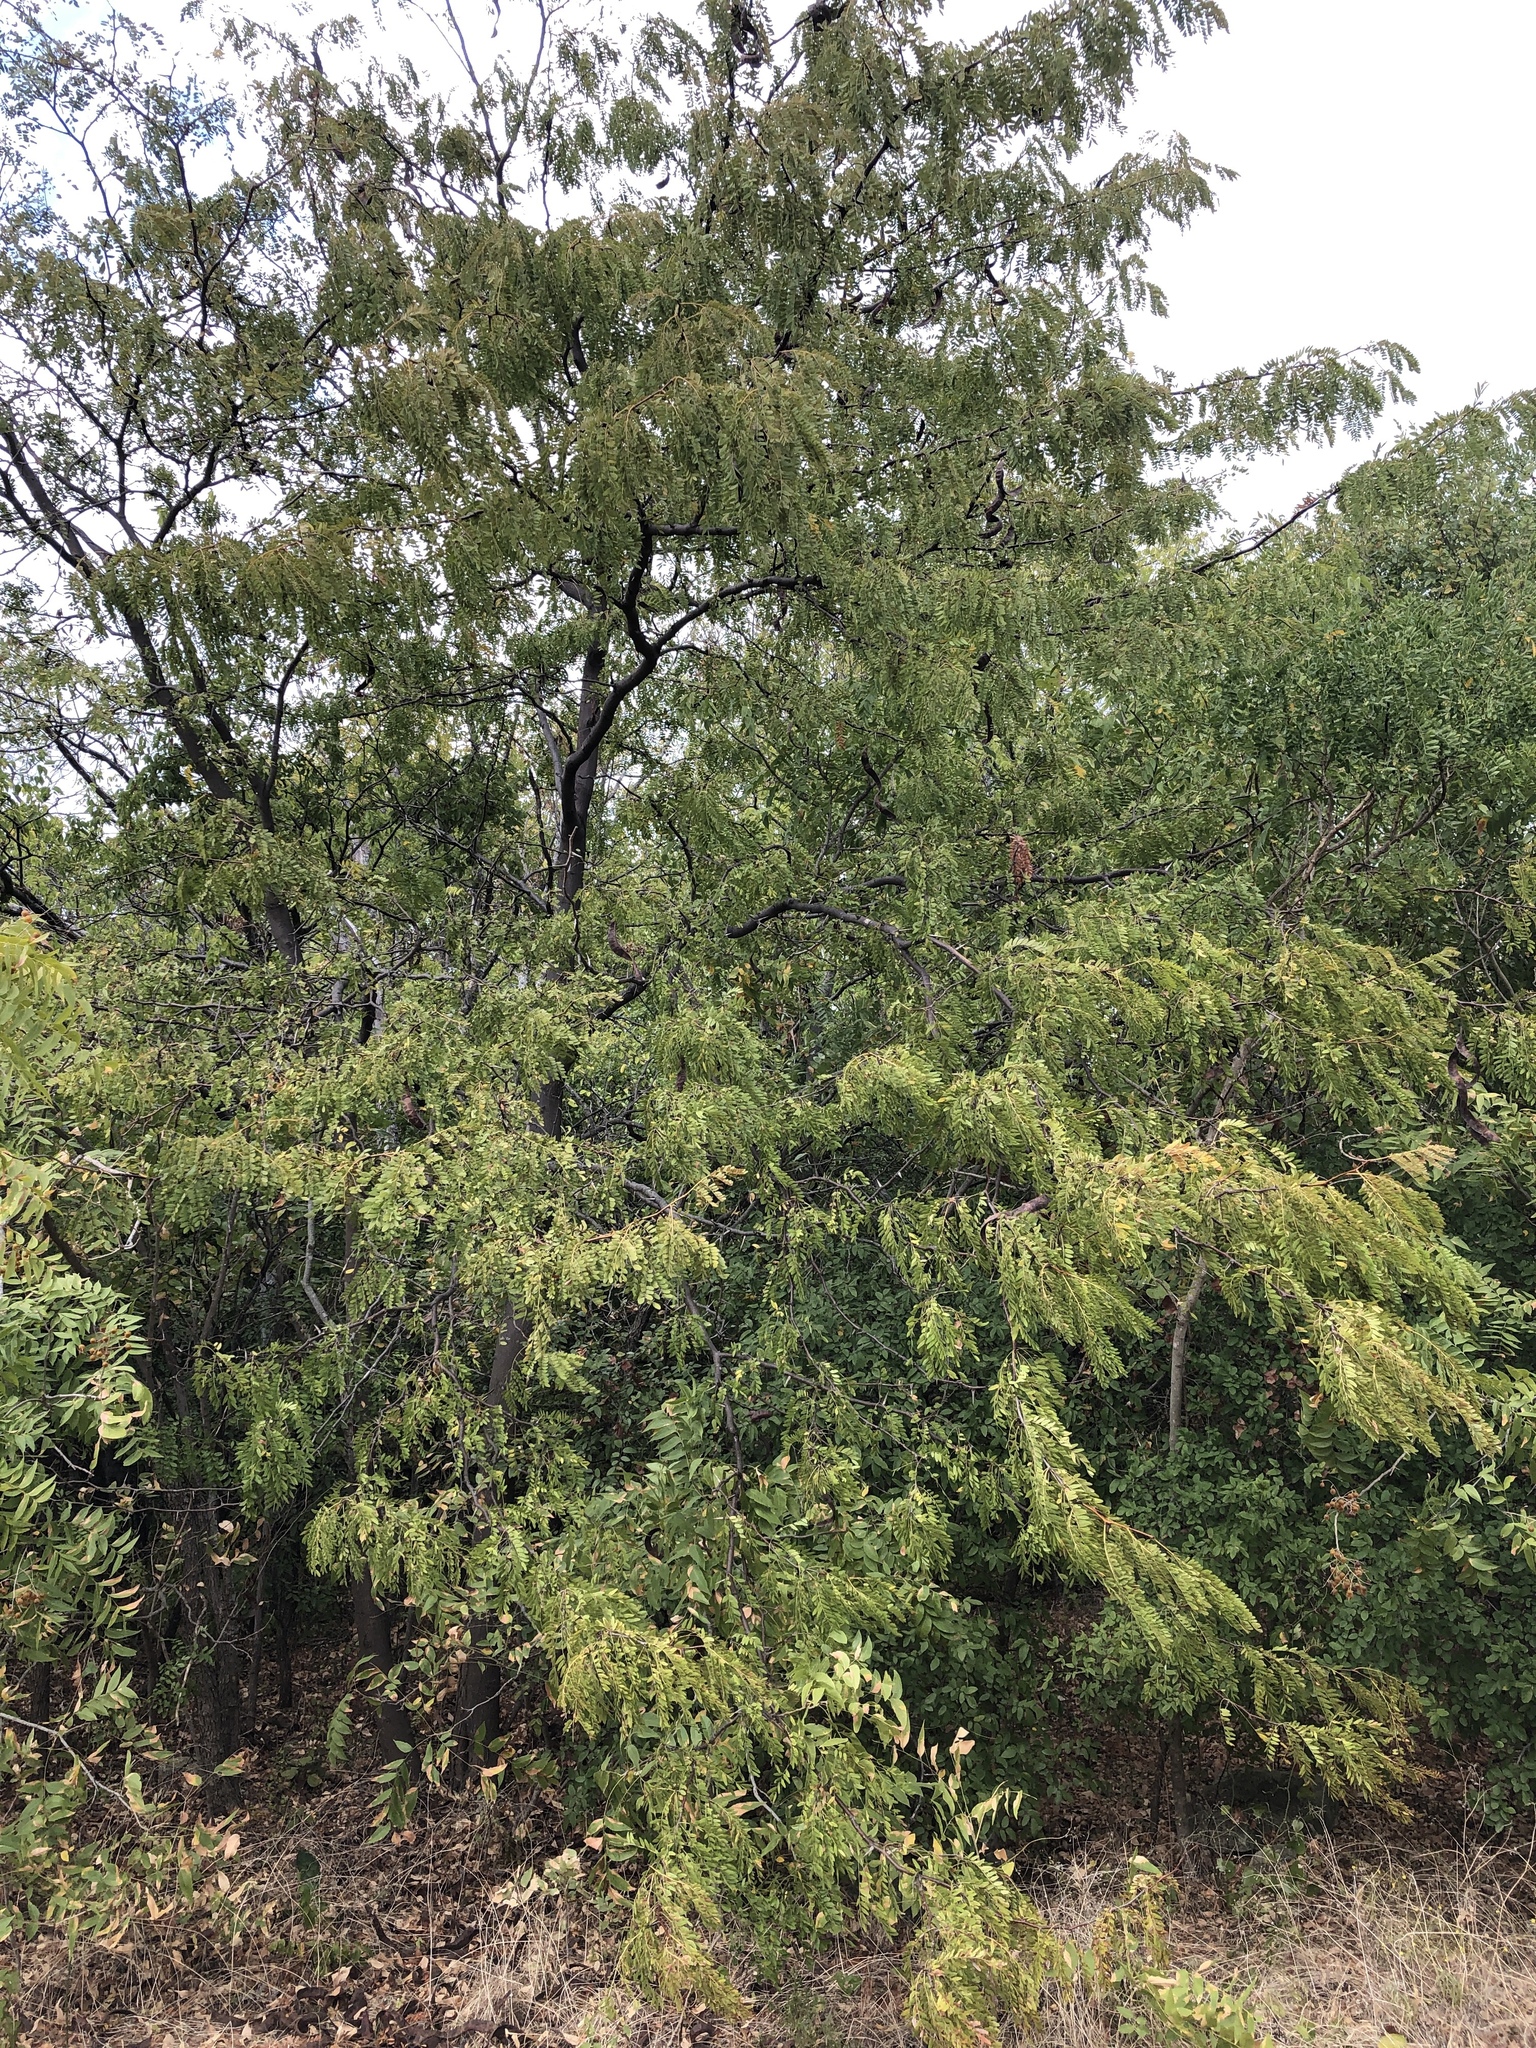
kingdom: Plantae
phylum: Tracheophyta
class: Magnoliopsida
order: Fabales
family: Fabaceae
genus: Gleditsia
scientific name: Gleditsia triacanthos
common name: Common honeylocust
